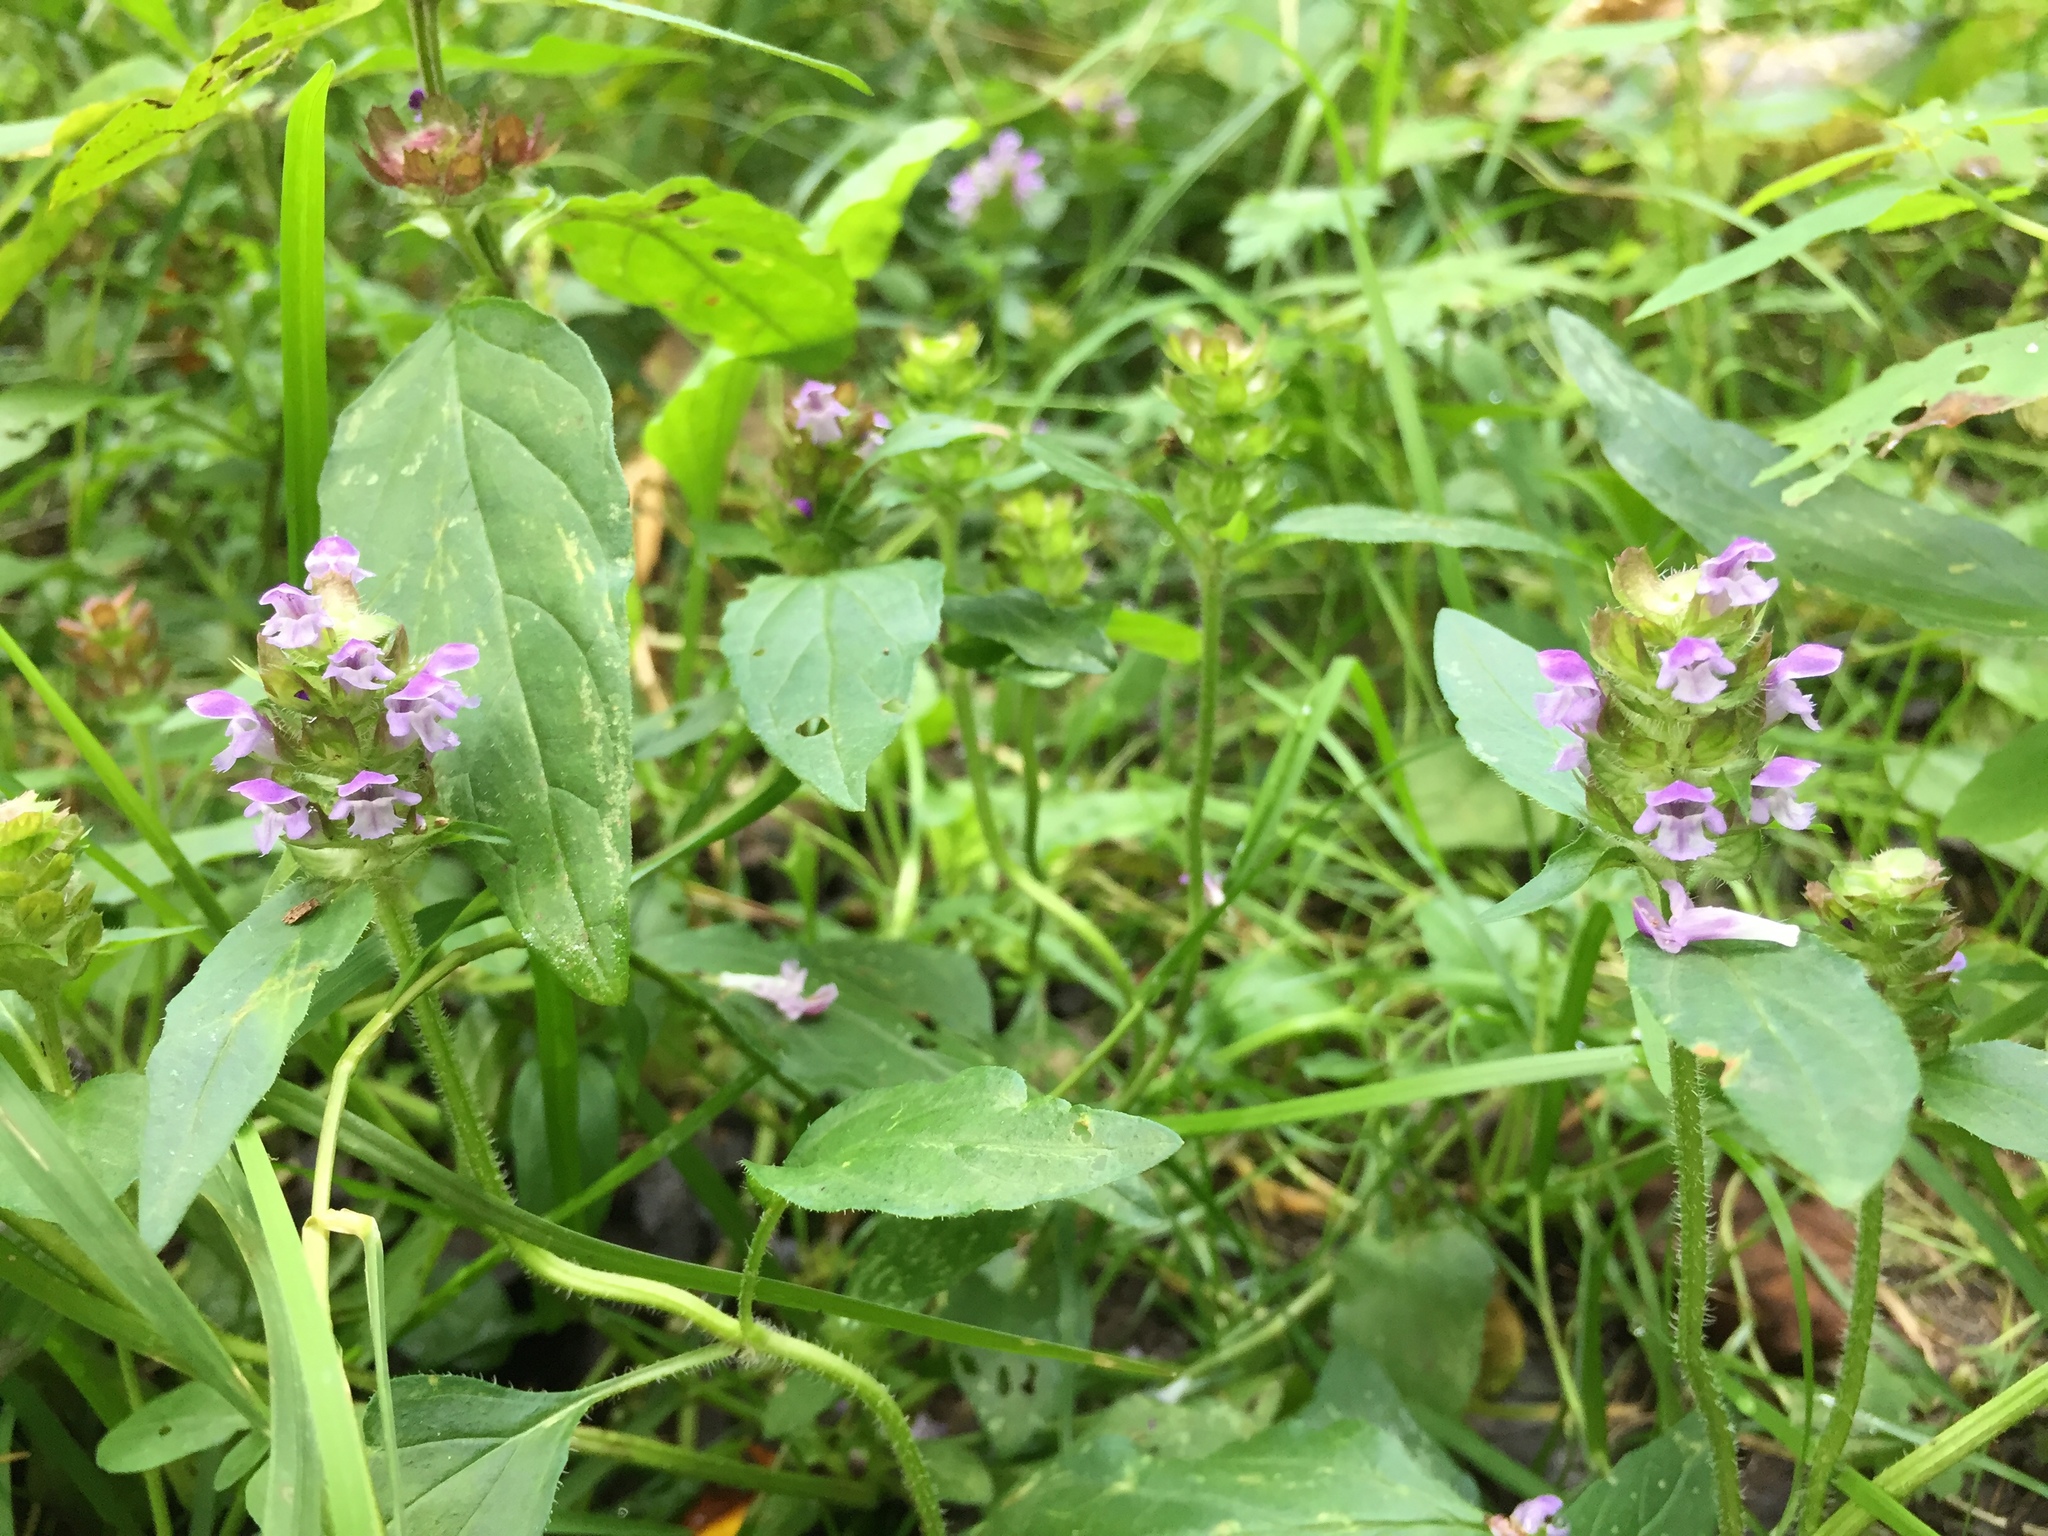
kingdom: Plantae
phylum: Tracheophyta
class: Magnoliopsida
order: Lamiales
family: Lamiaceae
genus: Prunella
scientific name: Prunella vulgaris
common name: Heal-all
